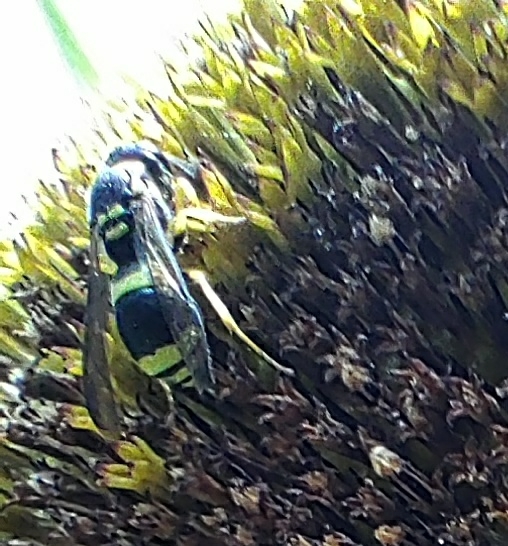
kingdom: Animalia
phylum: Arthropoda
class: Insecta
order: Hymenoptera
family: Vespidae
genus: Ancistrocerus
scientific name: Ancistrocerus gazella
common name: European tube wasp
